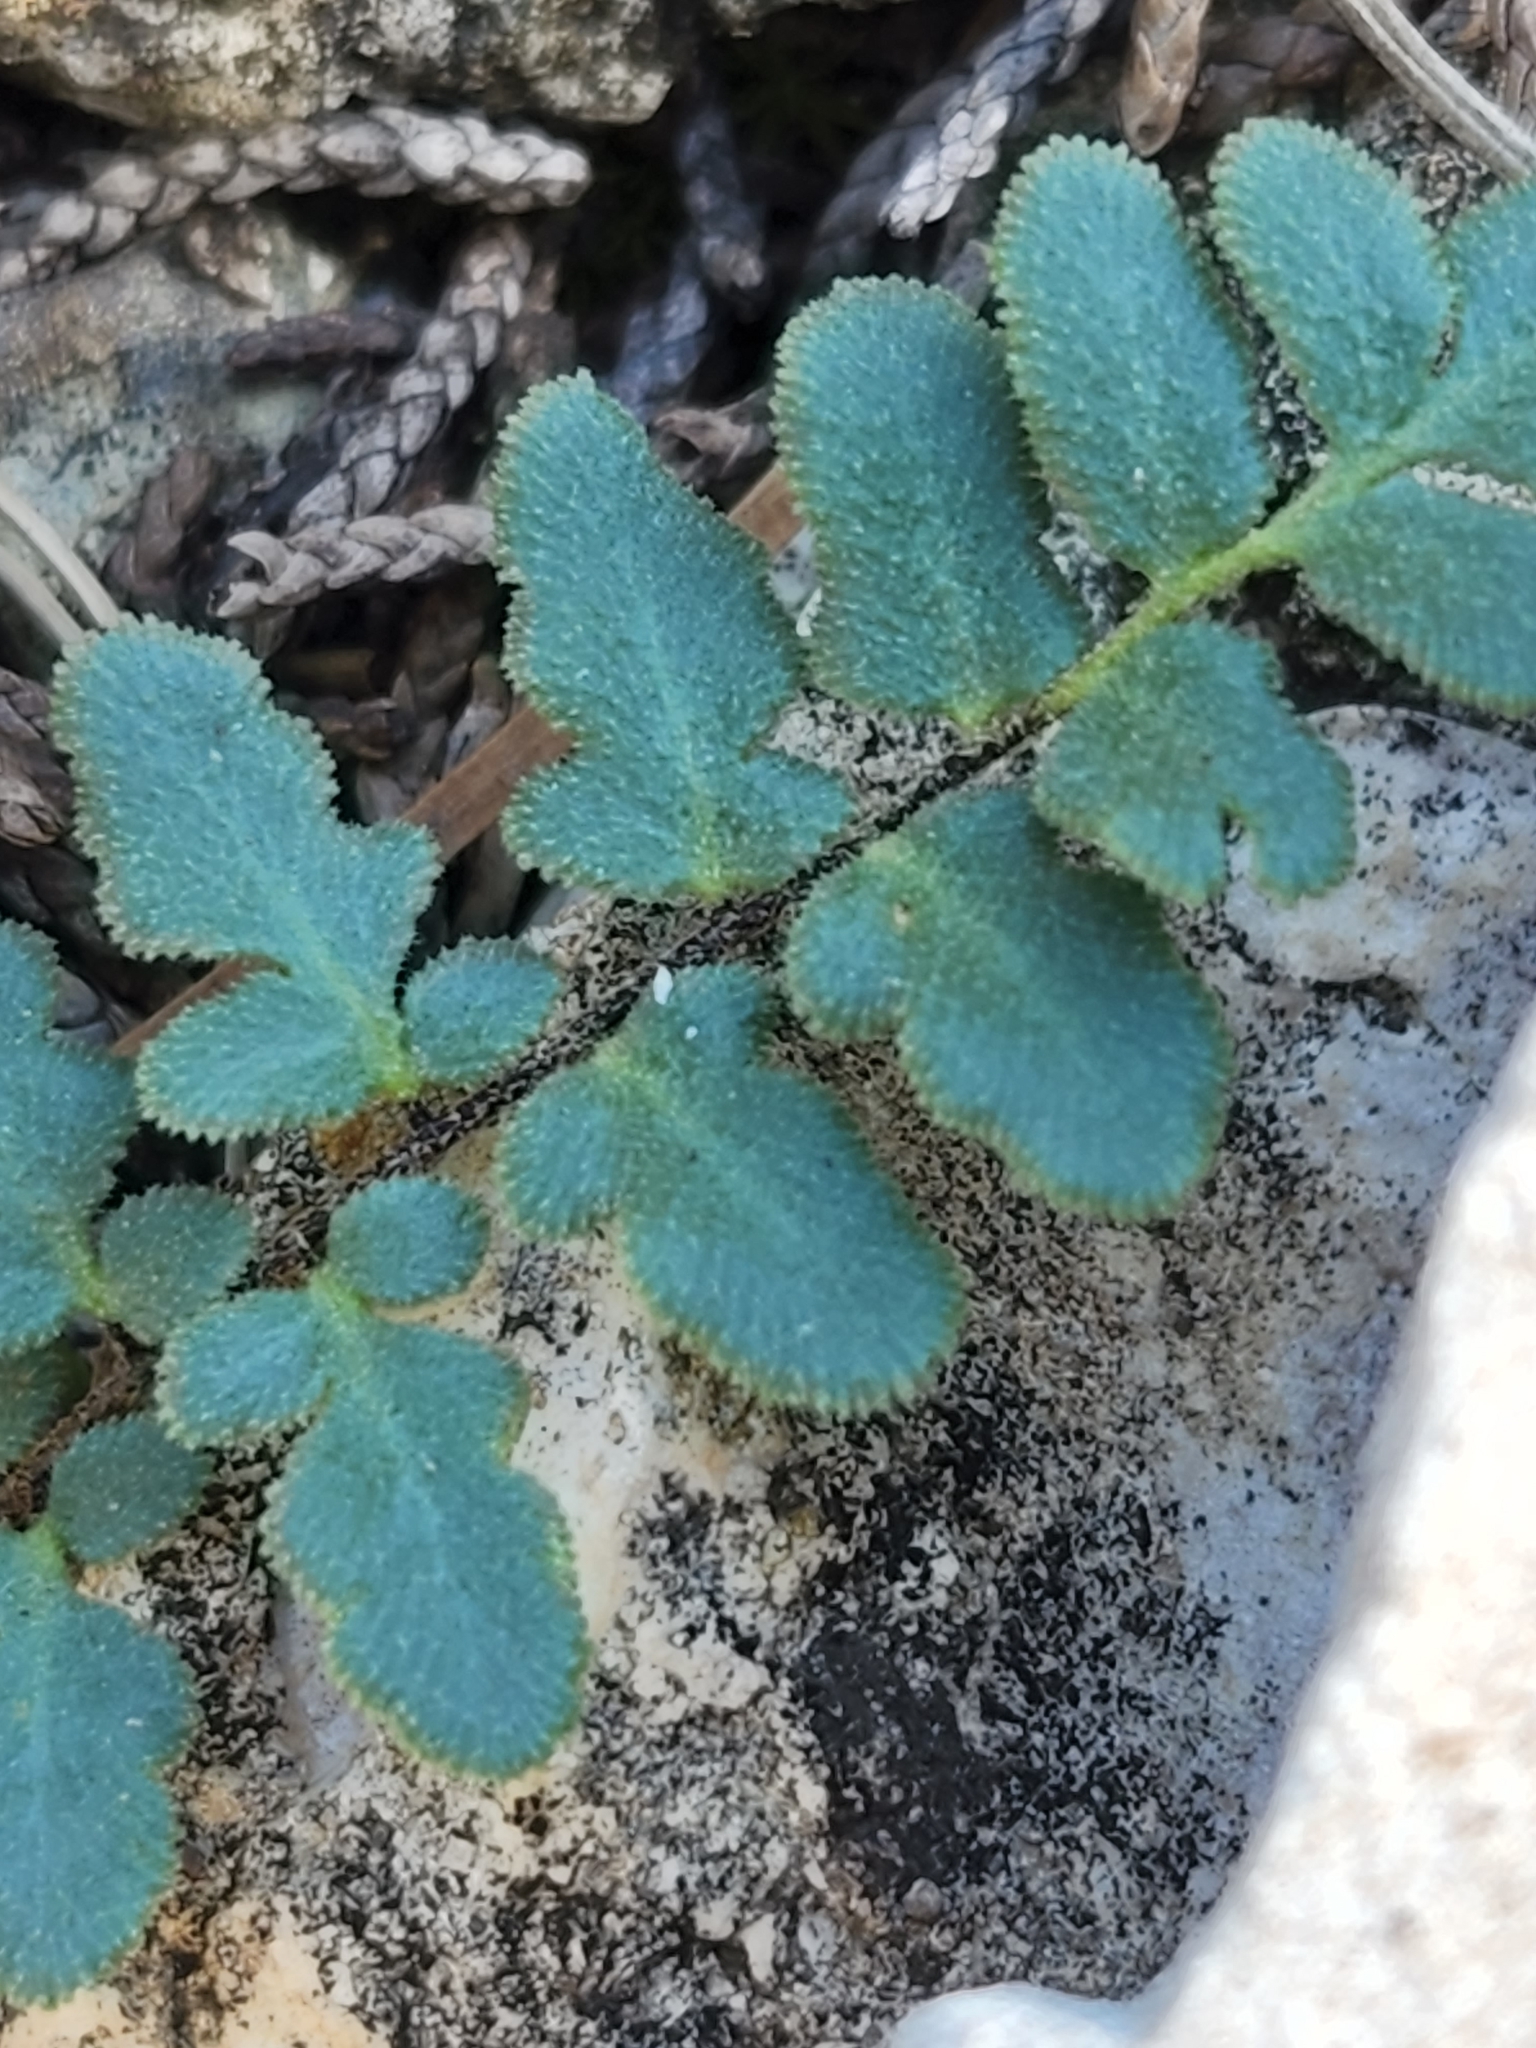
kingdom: Plantae
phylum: Tracheophyta
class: Polypodiopsida
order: Polypodiales
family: Pteridaceae
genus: Myriopteris
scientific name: Myriopteris scabra
